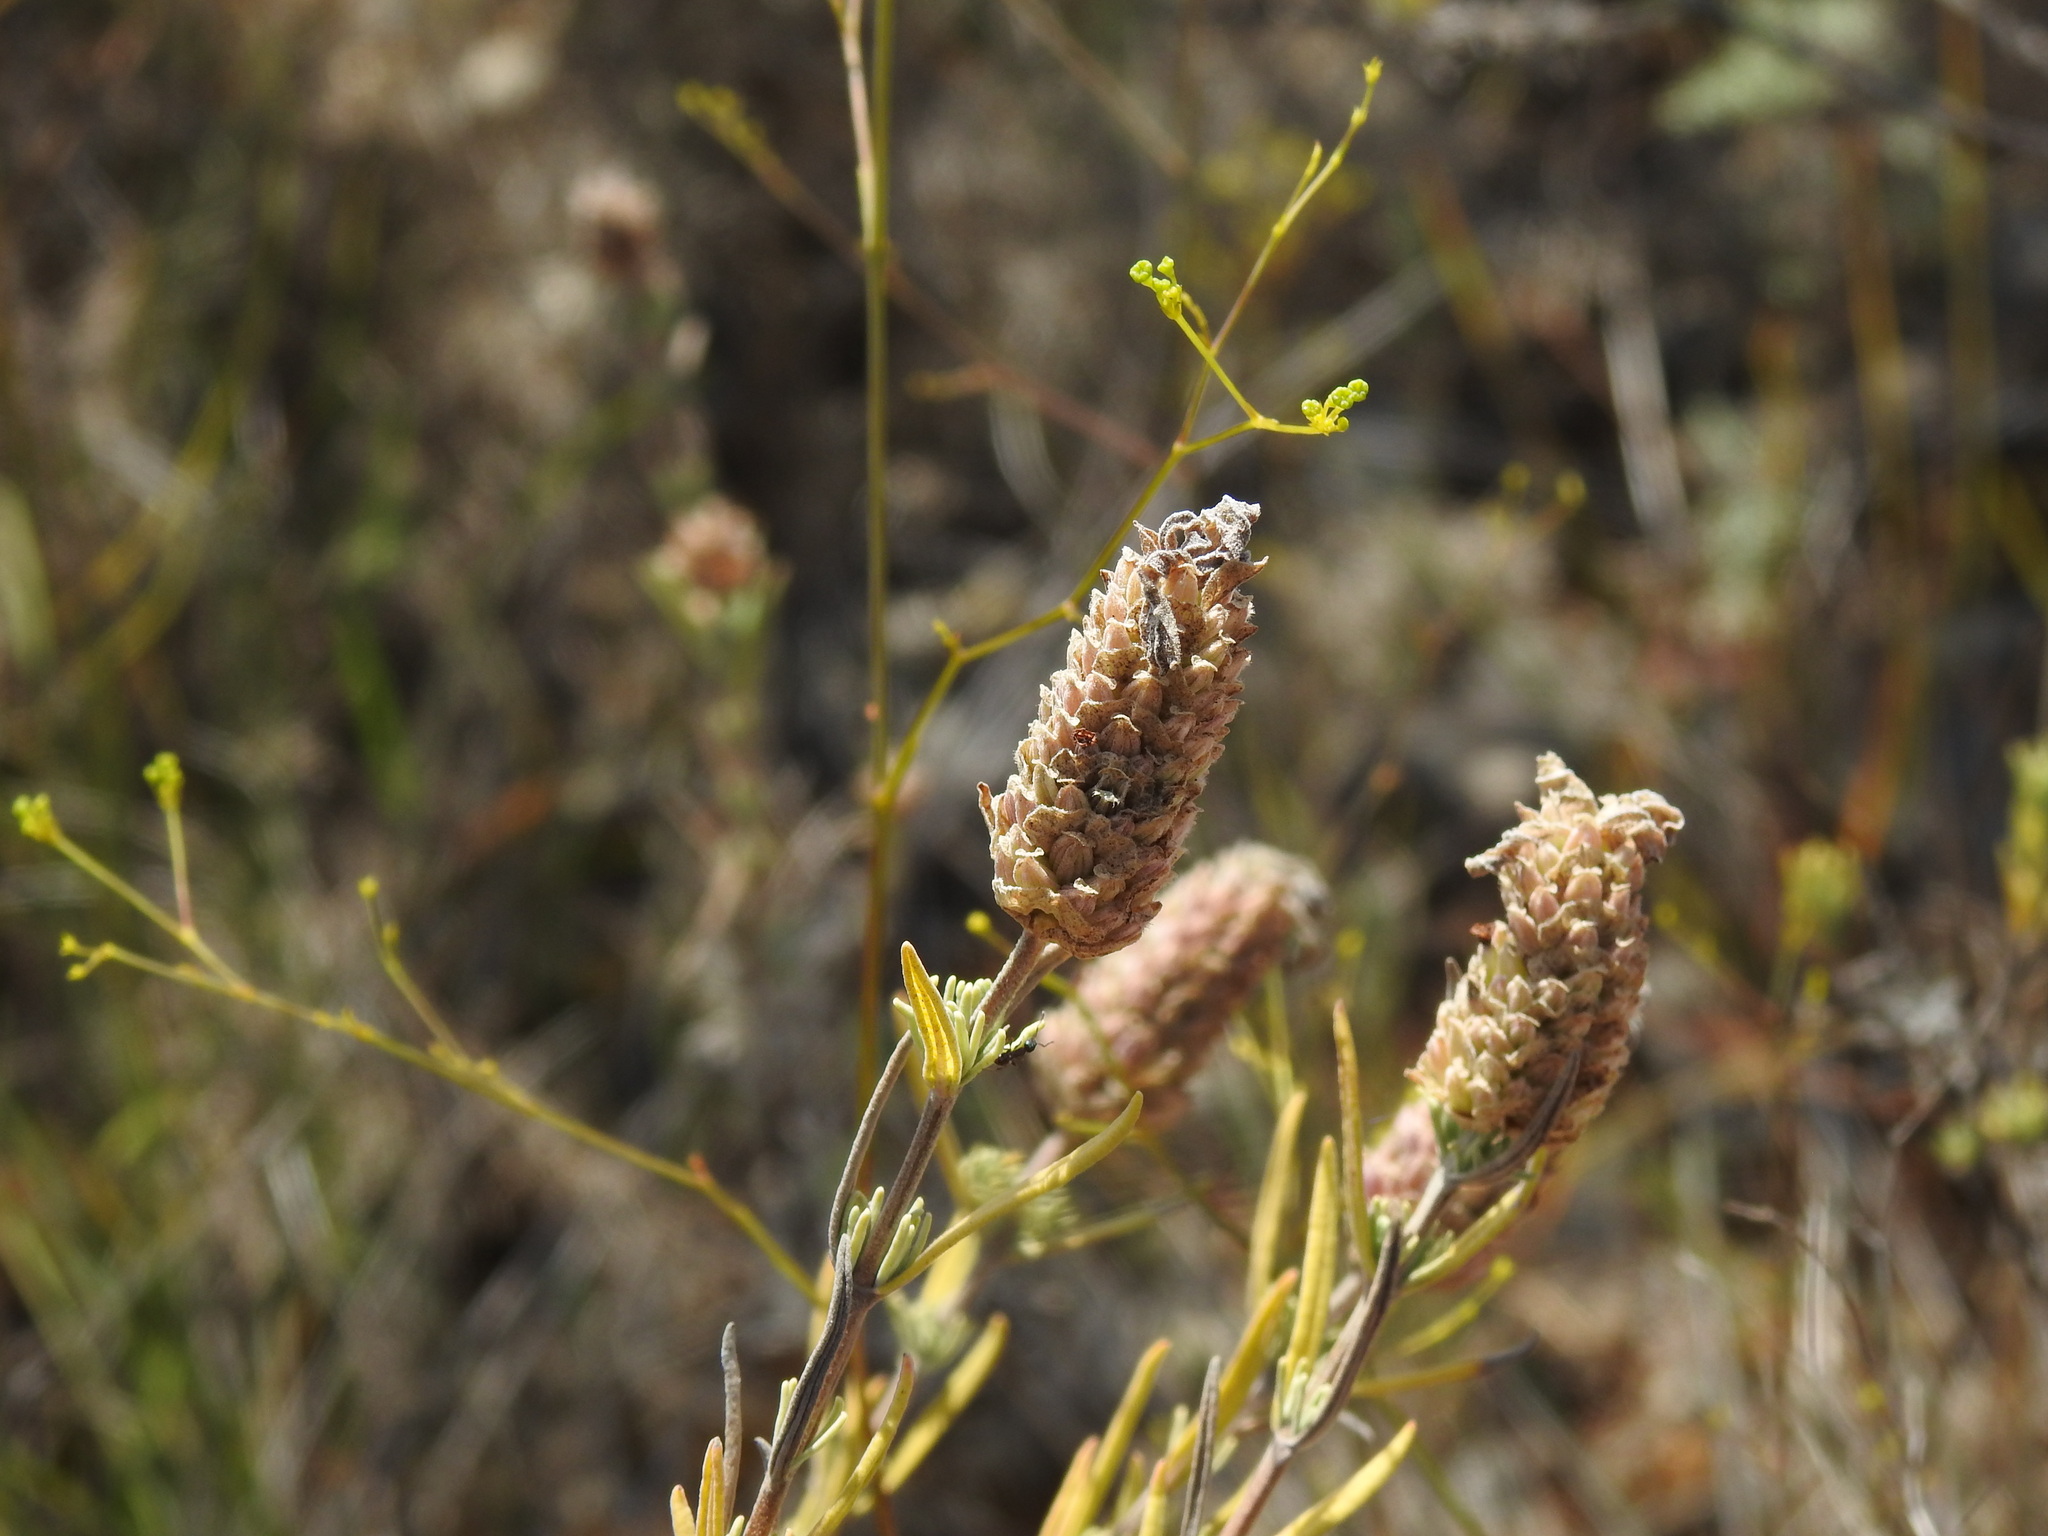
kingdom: Plantae
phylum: Tracheophyta
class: Magnoliopsida
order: Lamiales
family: Lamiaceae
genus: Lavandula
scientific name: Lavandula stoechas
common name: French lavender
